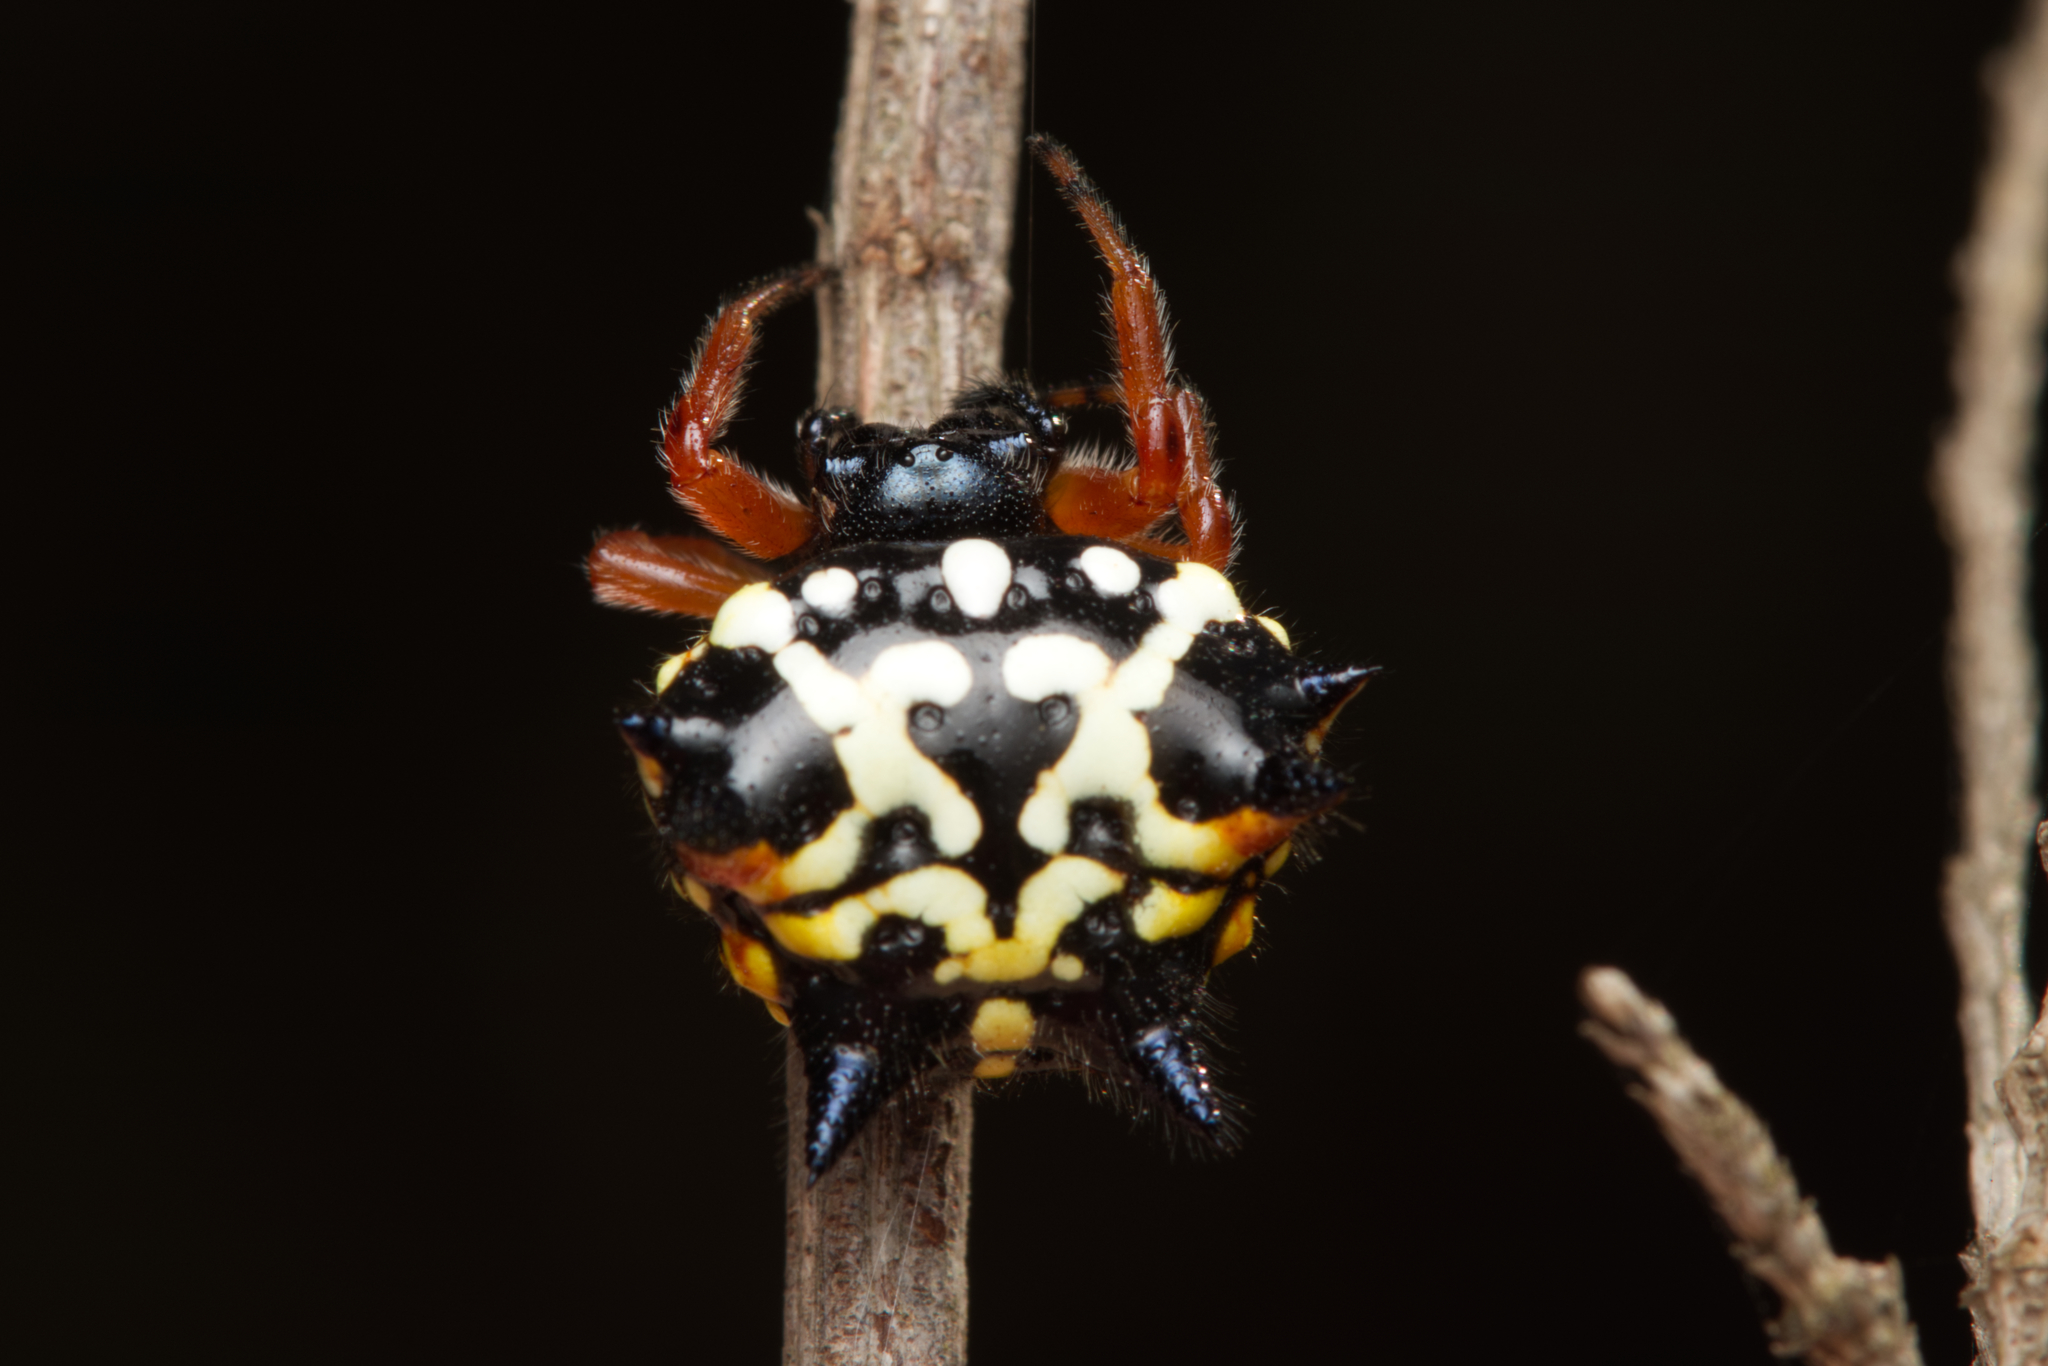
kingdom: Animalia
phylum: Arthropoda
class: Arachnida
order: Araneae
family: Araneidae
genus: Austracantha
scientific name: Austracantha minax
